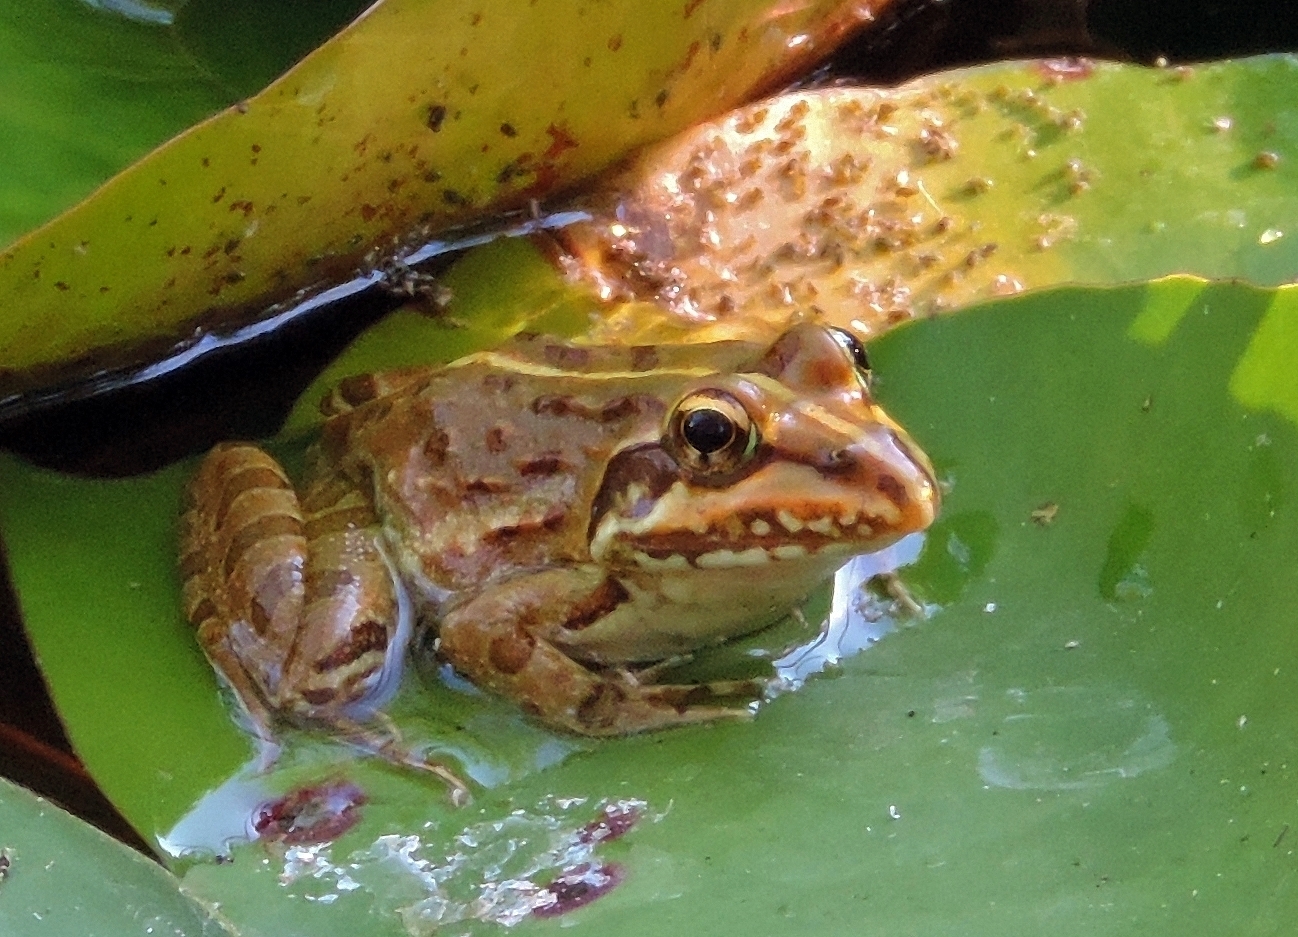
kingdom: Animalia
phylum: Chordata
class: Amphibia
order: Anura
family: Pyxicephalidae
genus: Amietia
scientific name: Amietia delalandii
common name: Delalande's river frog
